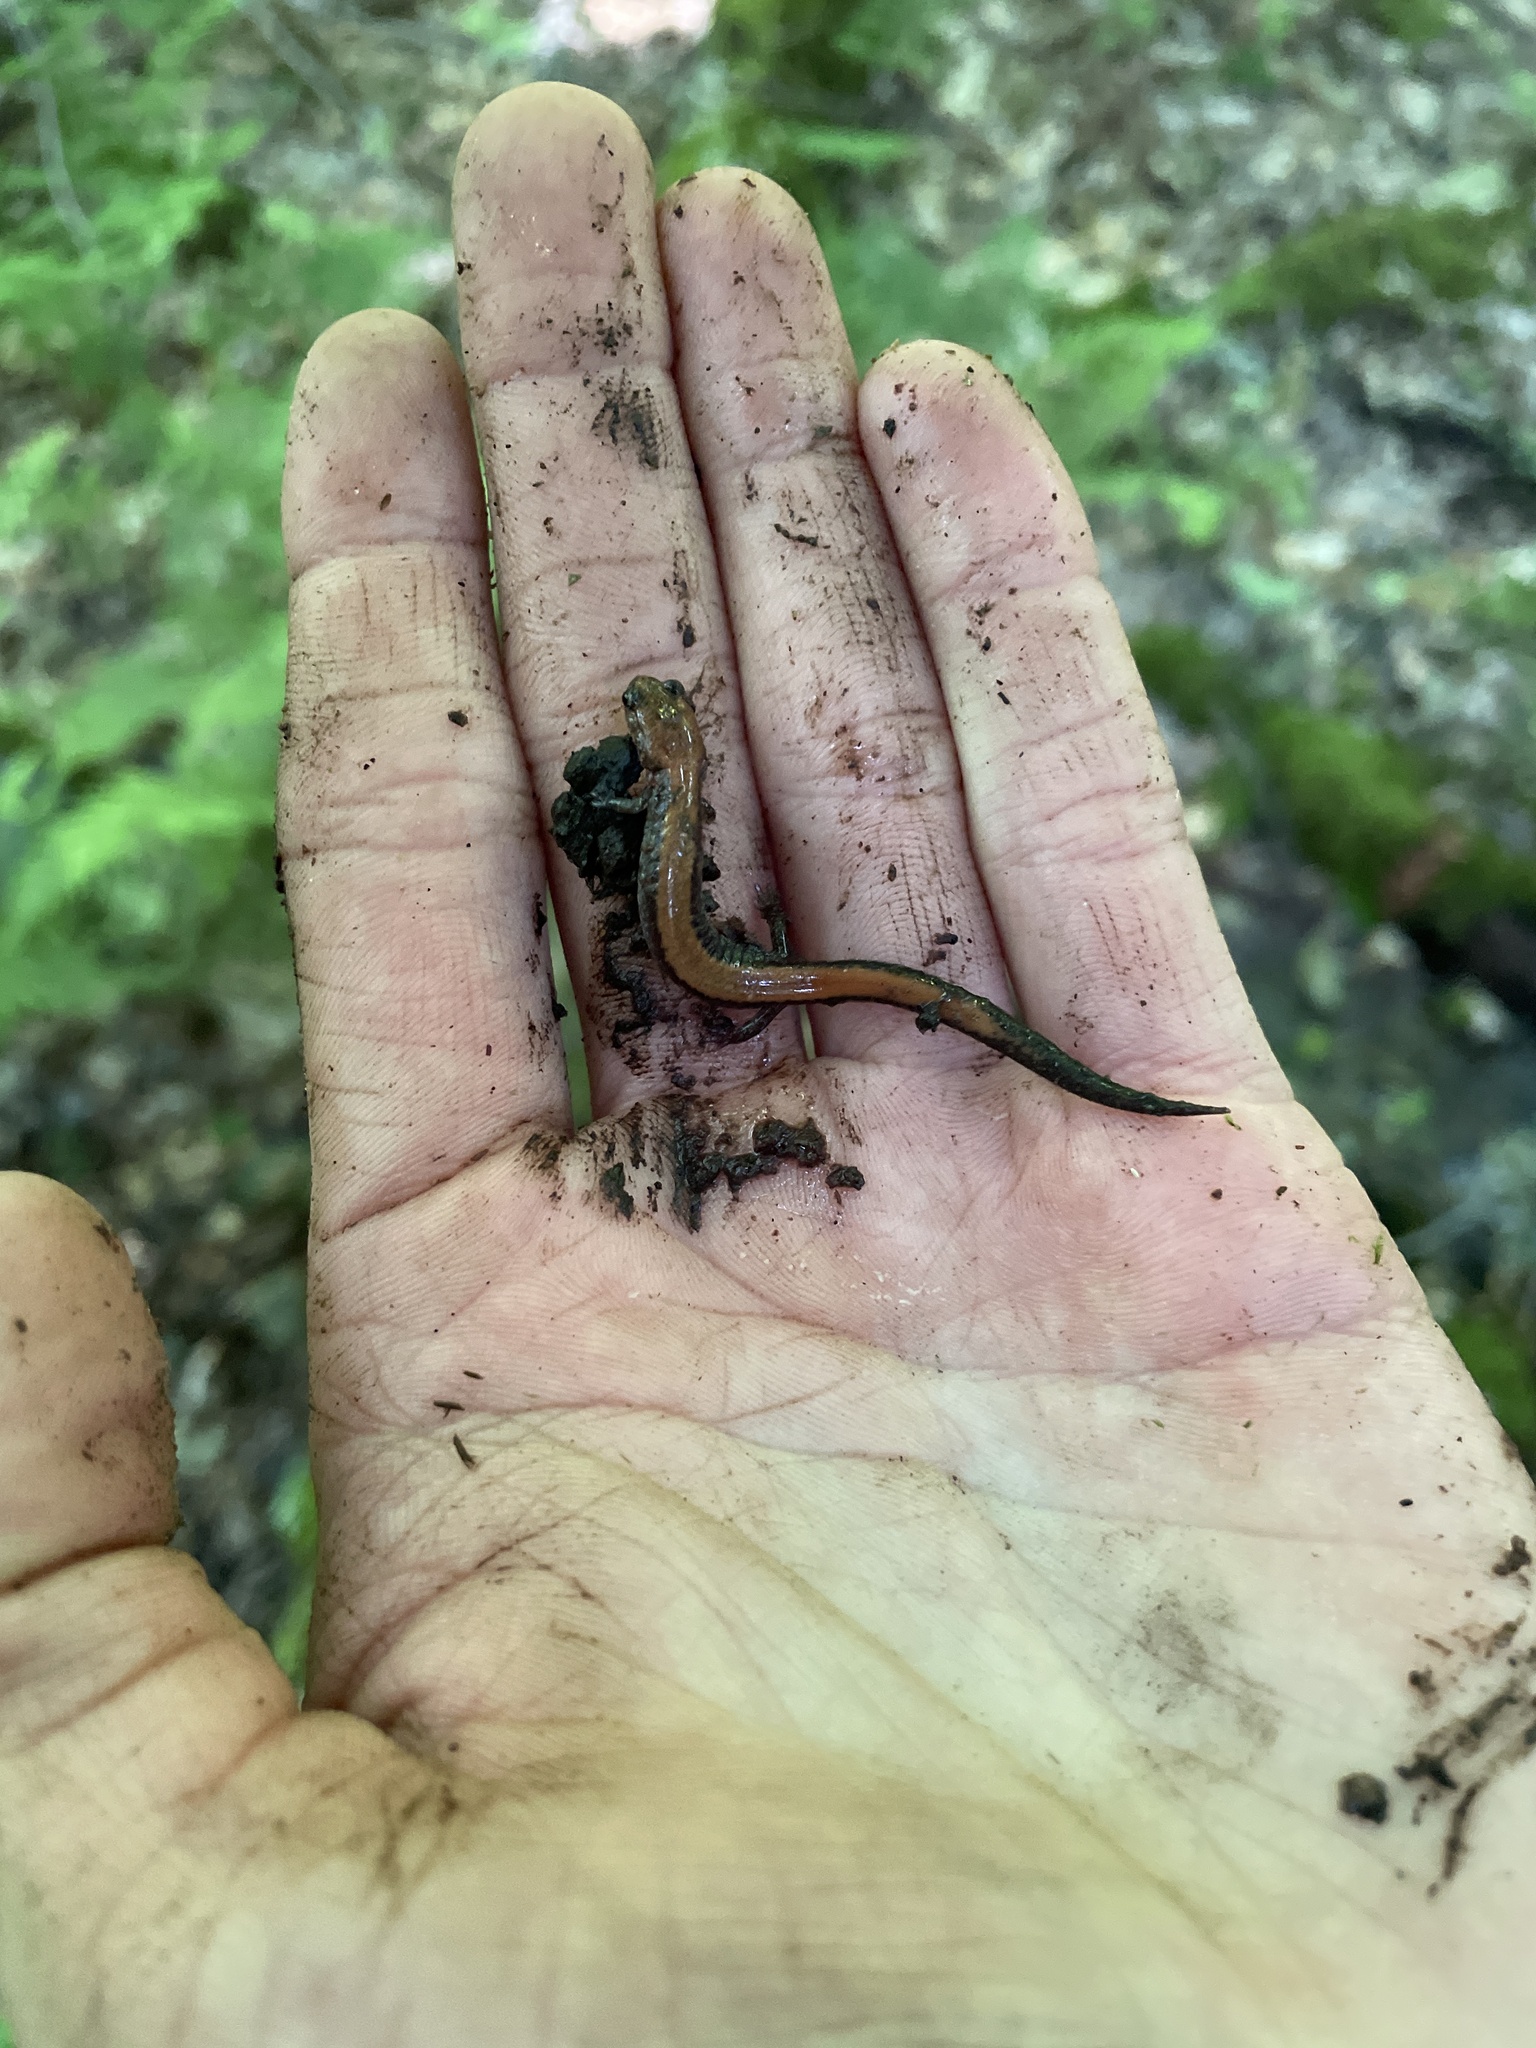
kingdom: Animalia
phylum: Chordata
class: Amphibia
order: Caudata
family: Plethodontidae
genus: Plethodon
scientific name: Plethodon cinereus
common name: Redback salamander
